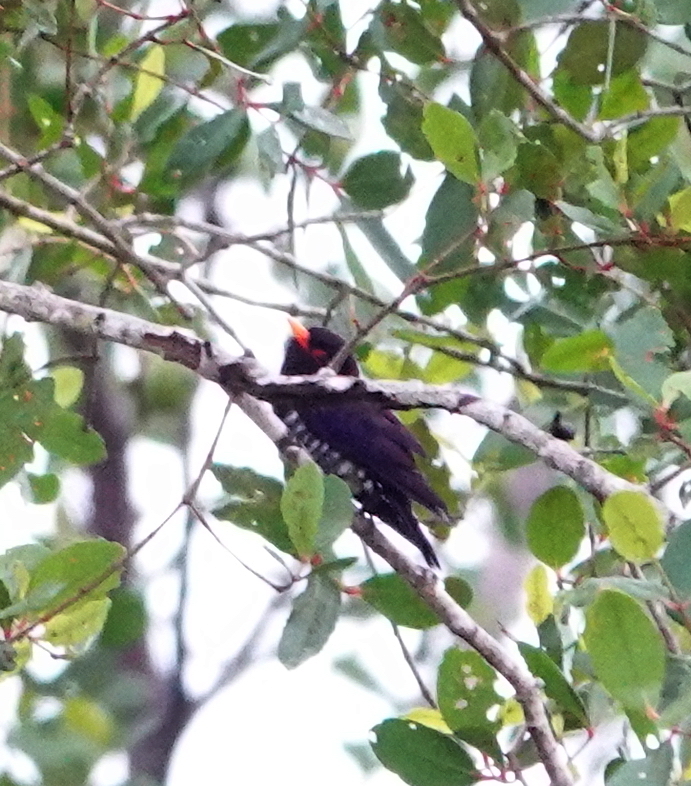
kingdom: Animalia
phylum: Chordata
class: Aves
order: Cuculiformes
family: Cuculidae
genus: Chrysococcyx
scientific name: Chrysococcyx xanthorhynchus
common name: Violet cuckoo
